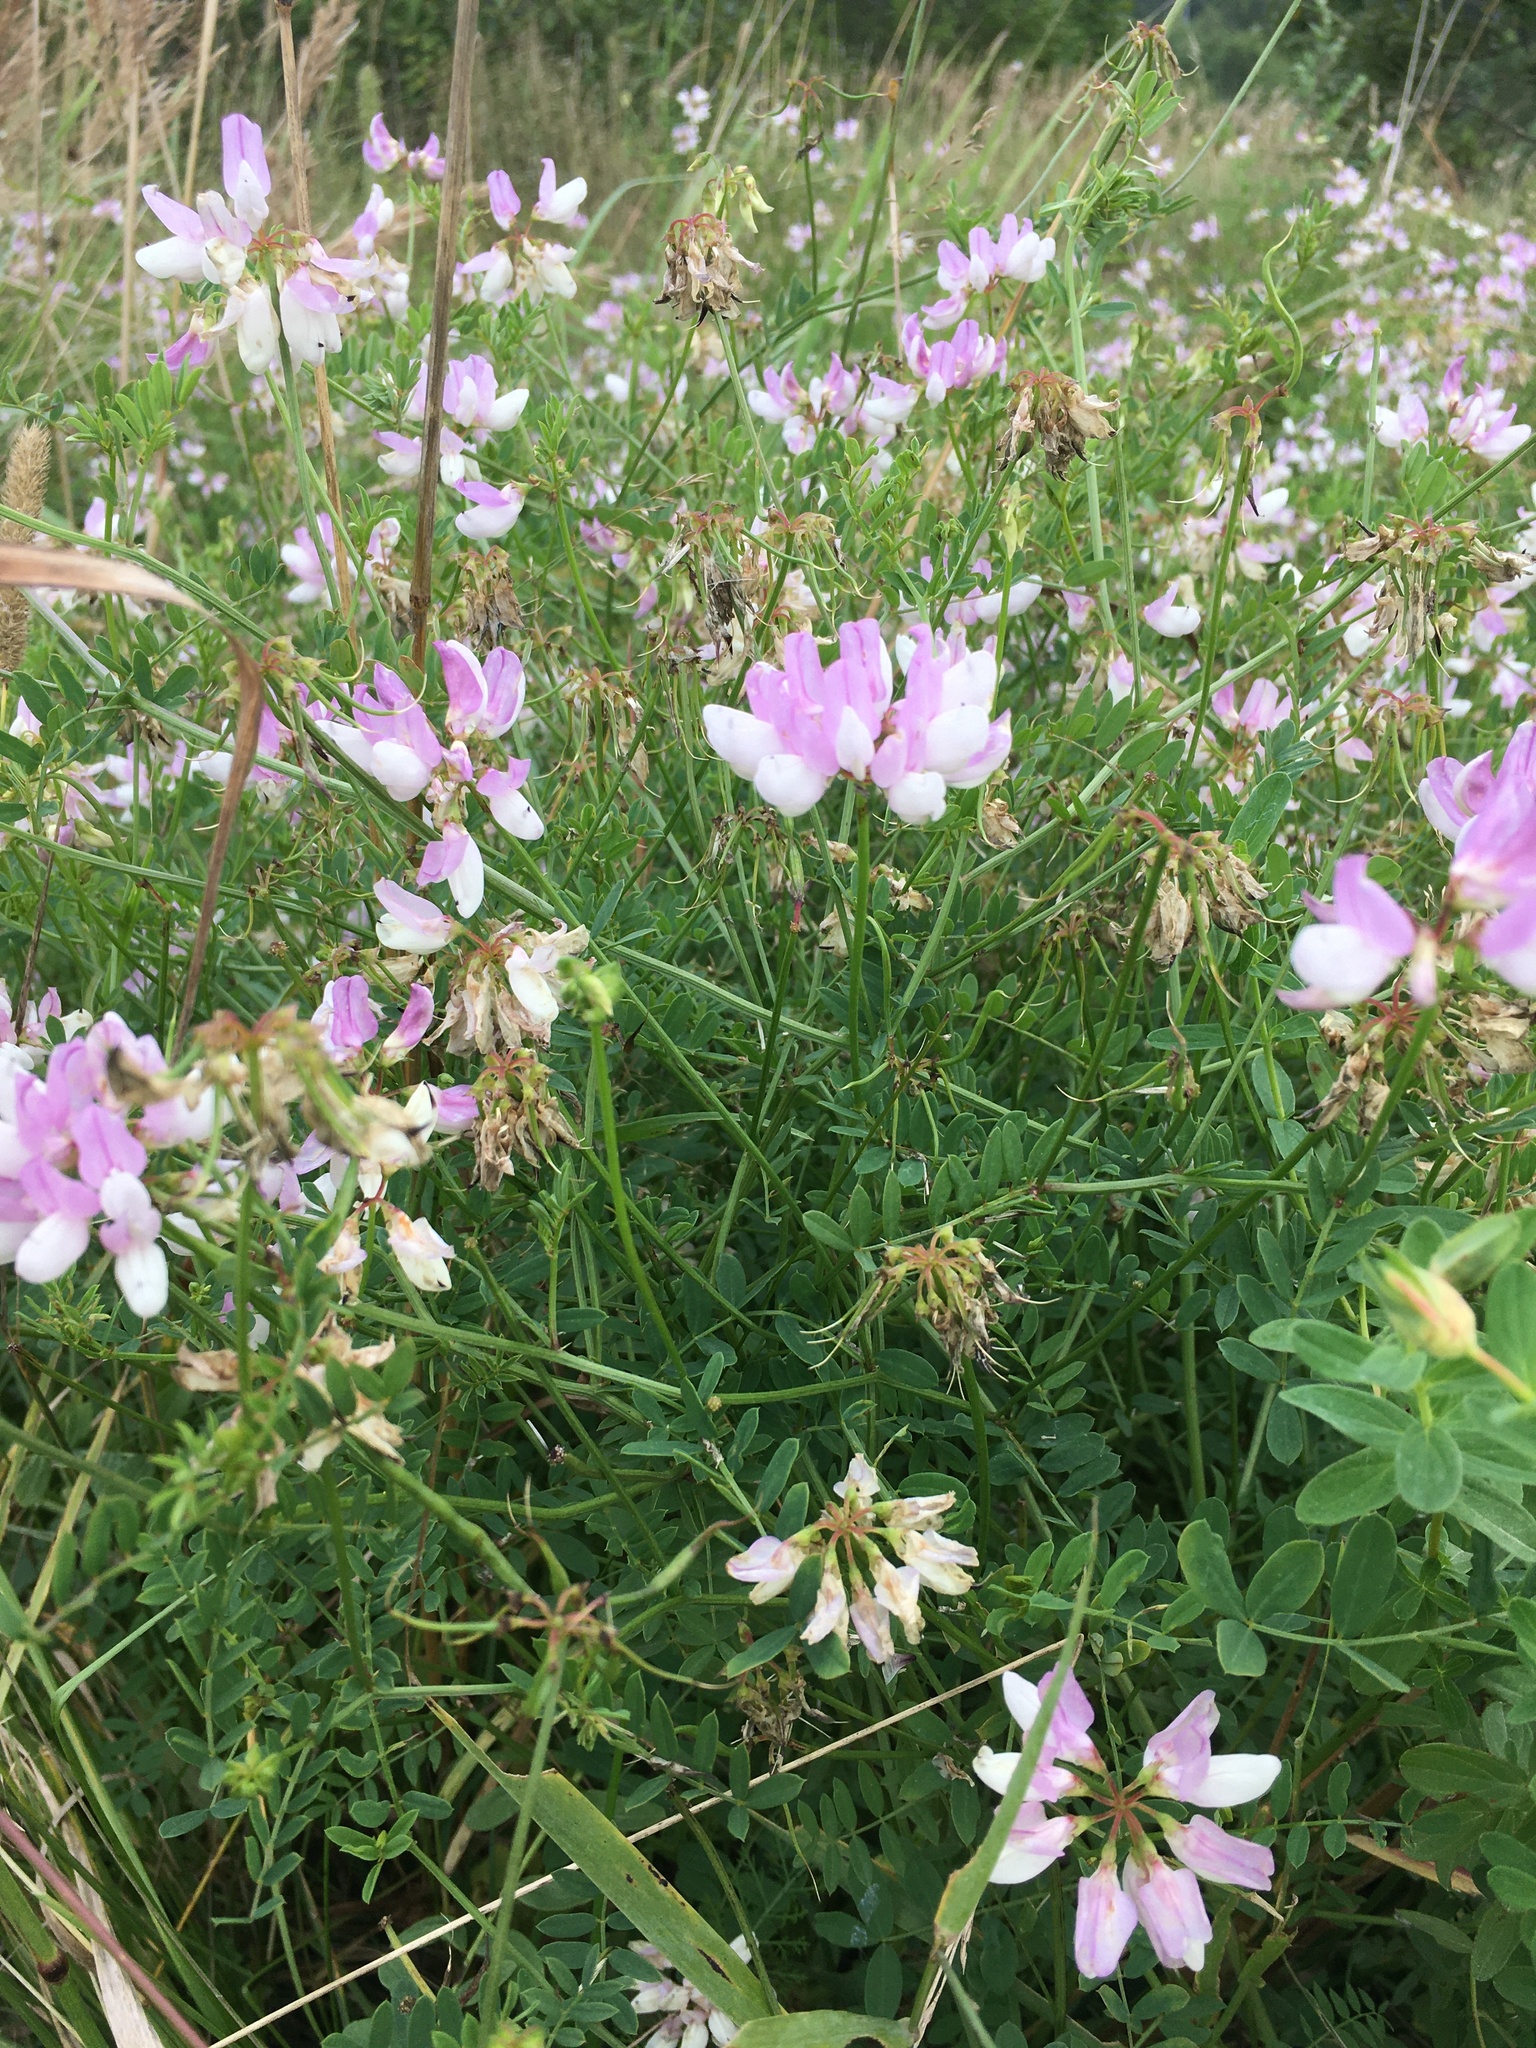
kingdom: Plantae
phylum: Tracheophyta
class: Magnoliopsida
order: Fabales
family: Fabaceae
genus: Coronilla
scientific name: Coronilla varia
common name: Crownvetch
